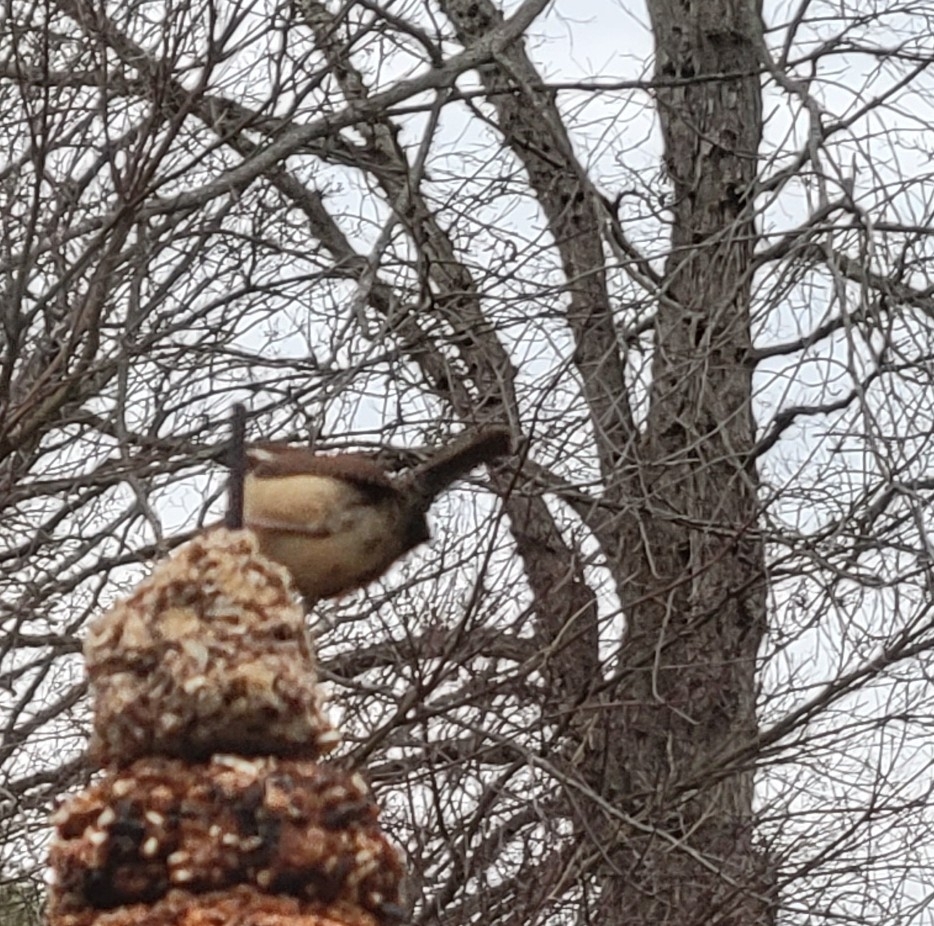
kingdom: Animalia
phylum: Chordata
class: Aves
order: Passeriformes
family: Troglodytidae
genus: Thryothorus
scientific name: Thryothorus ludovicianus
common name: Carolina wren
